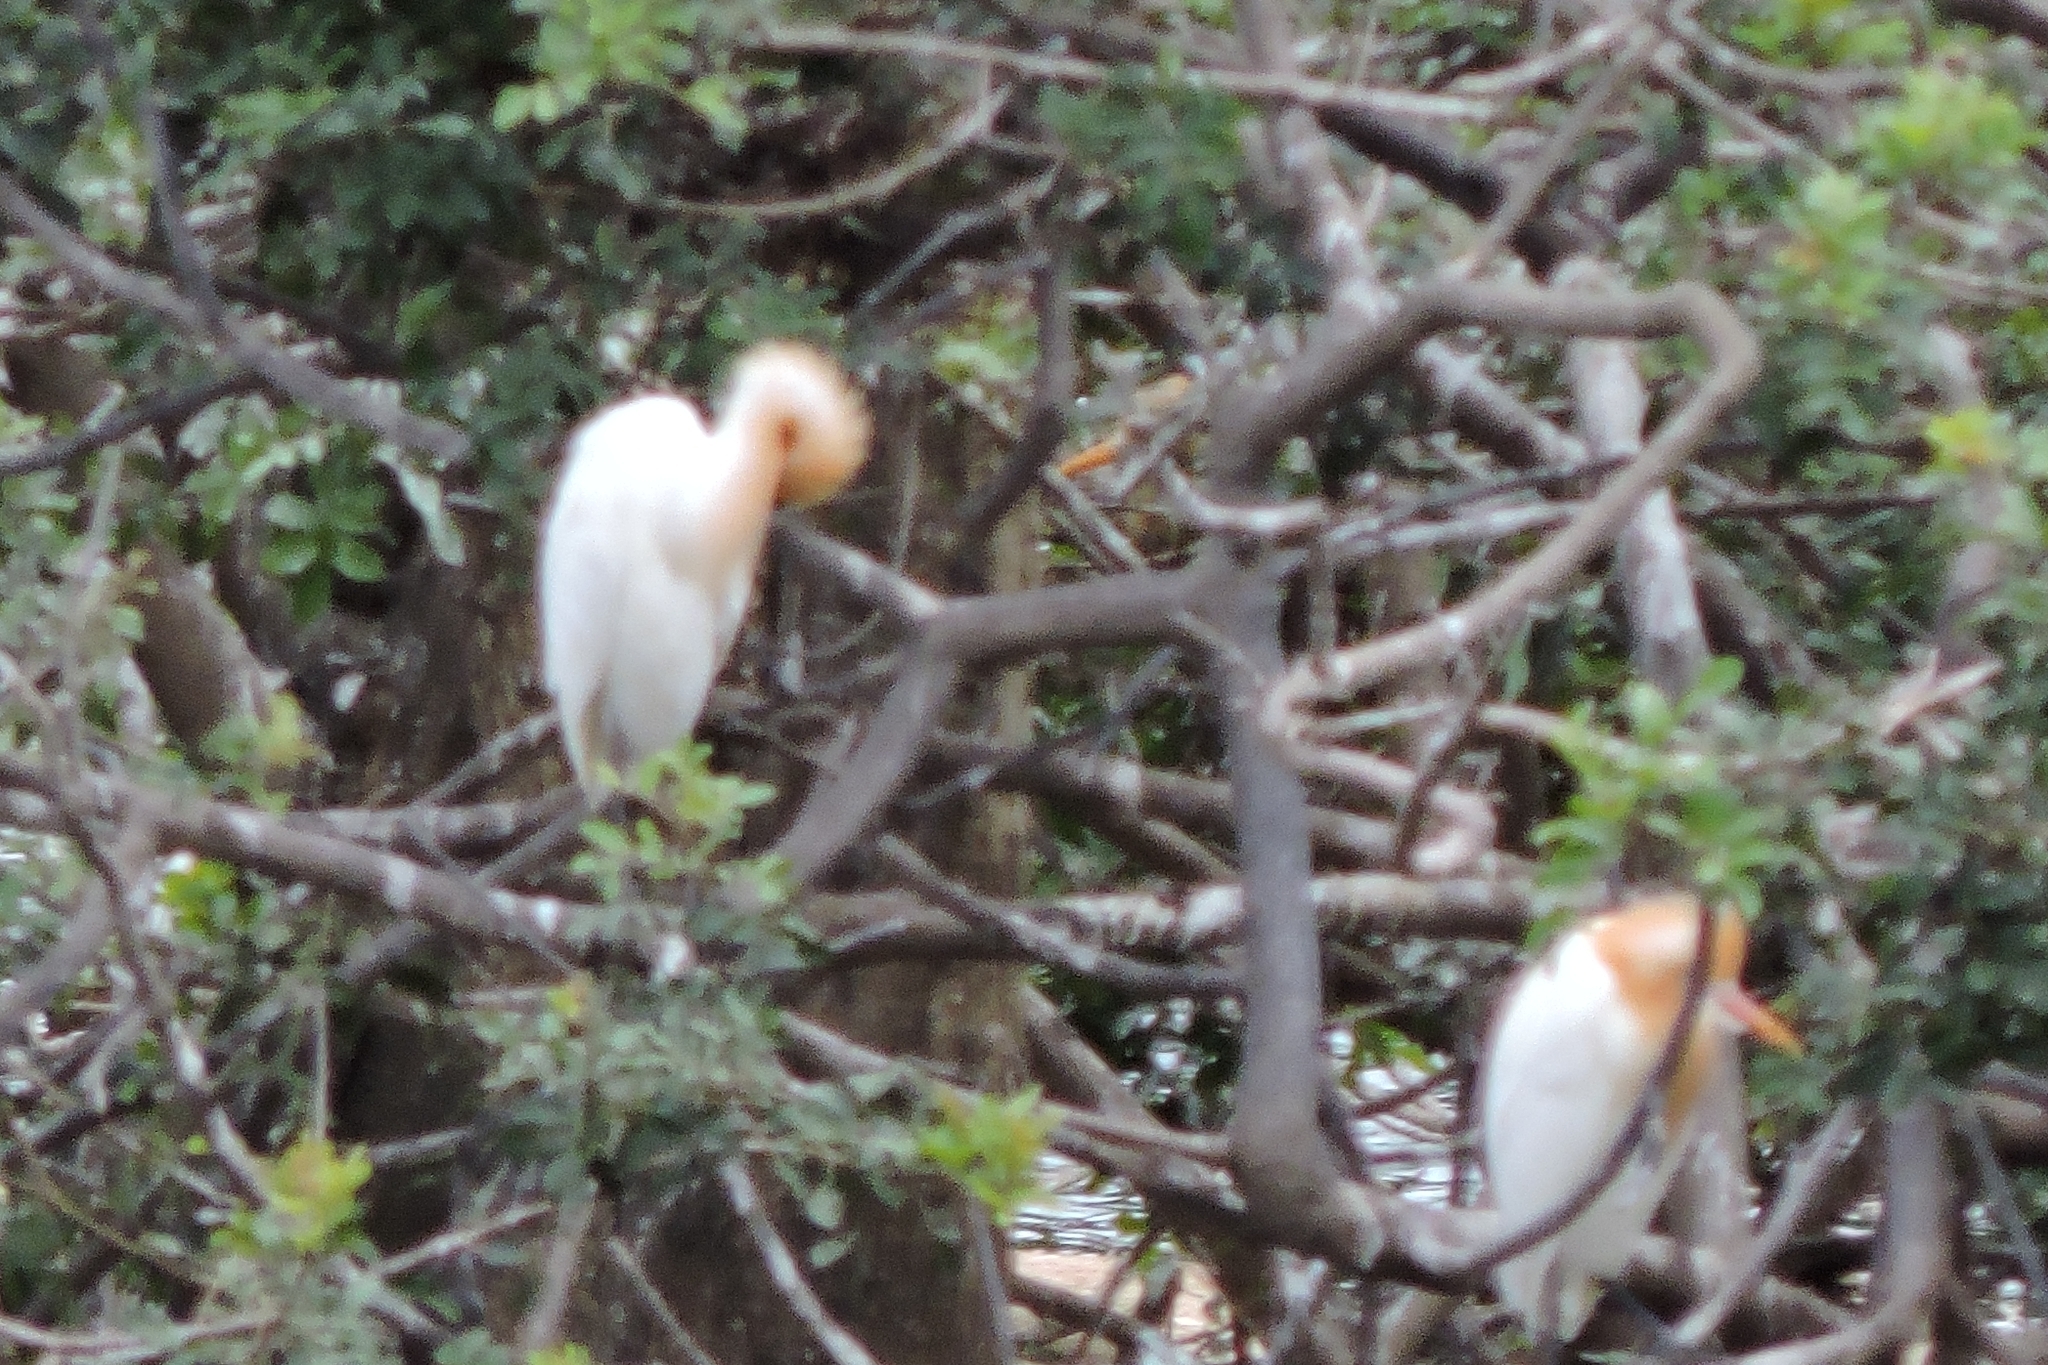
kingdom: Animalia
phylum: Chordata
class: Aves
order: Pelecaniformes
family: Ardeidae
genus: Bubulcus
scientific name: Bubulcus coromandus
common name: Eastern cattle egret
